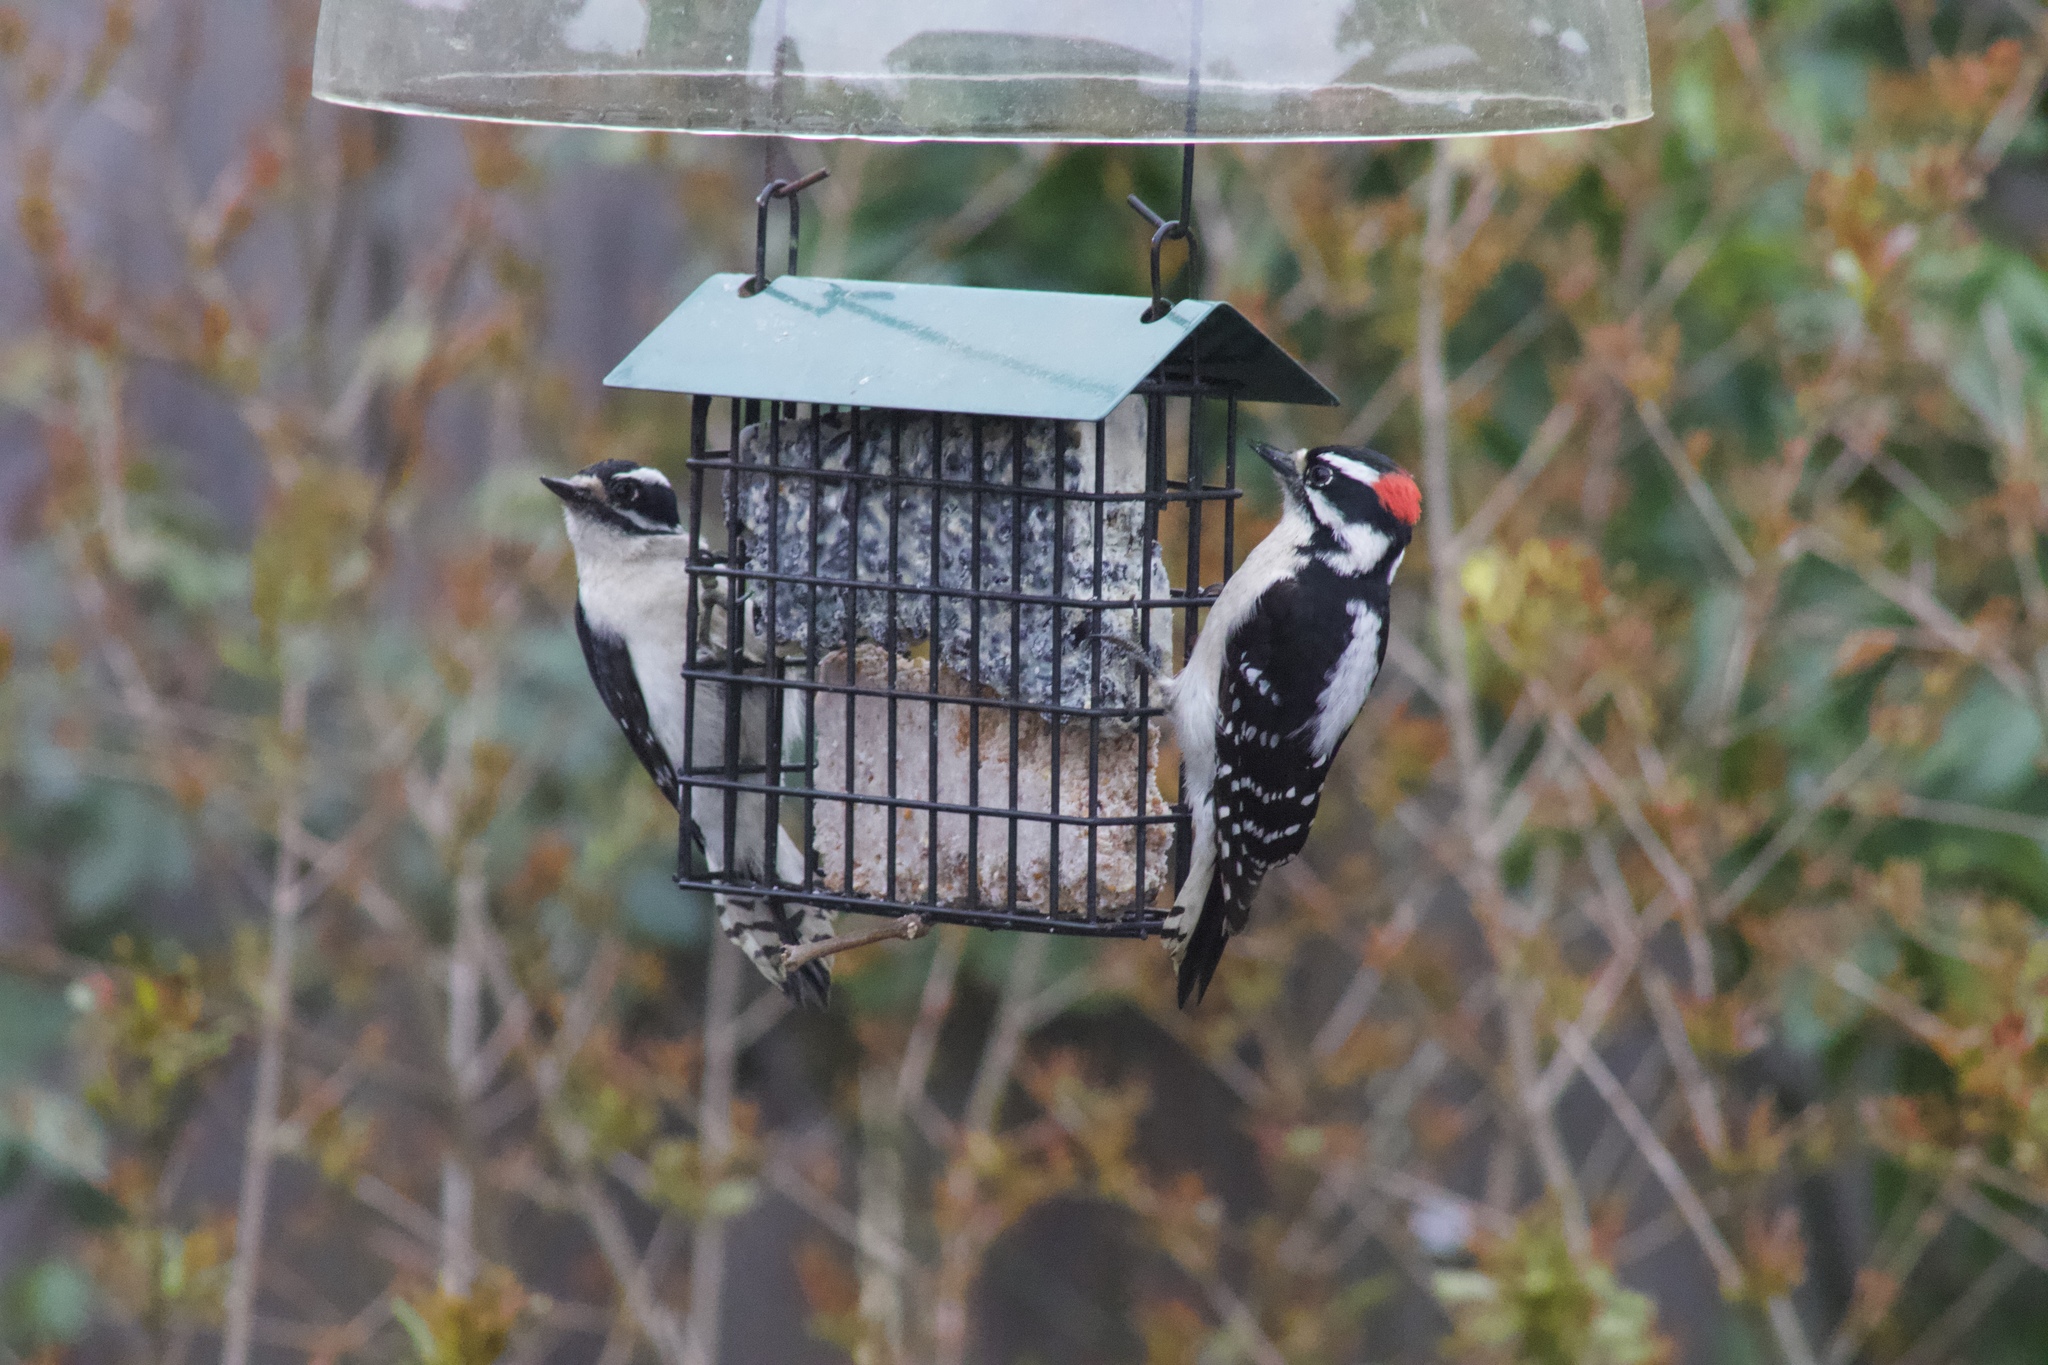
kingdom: Animalia
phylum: Chordata
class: Aves
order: Piciformes
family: Picidae
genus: Dryobates
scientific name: Dryobates pubescens
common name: Downy woodpecker
